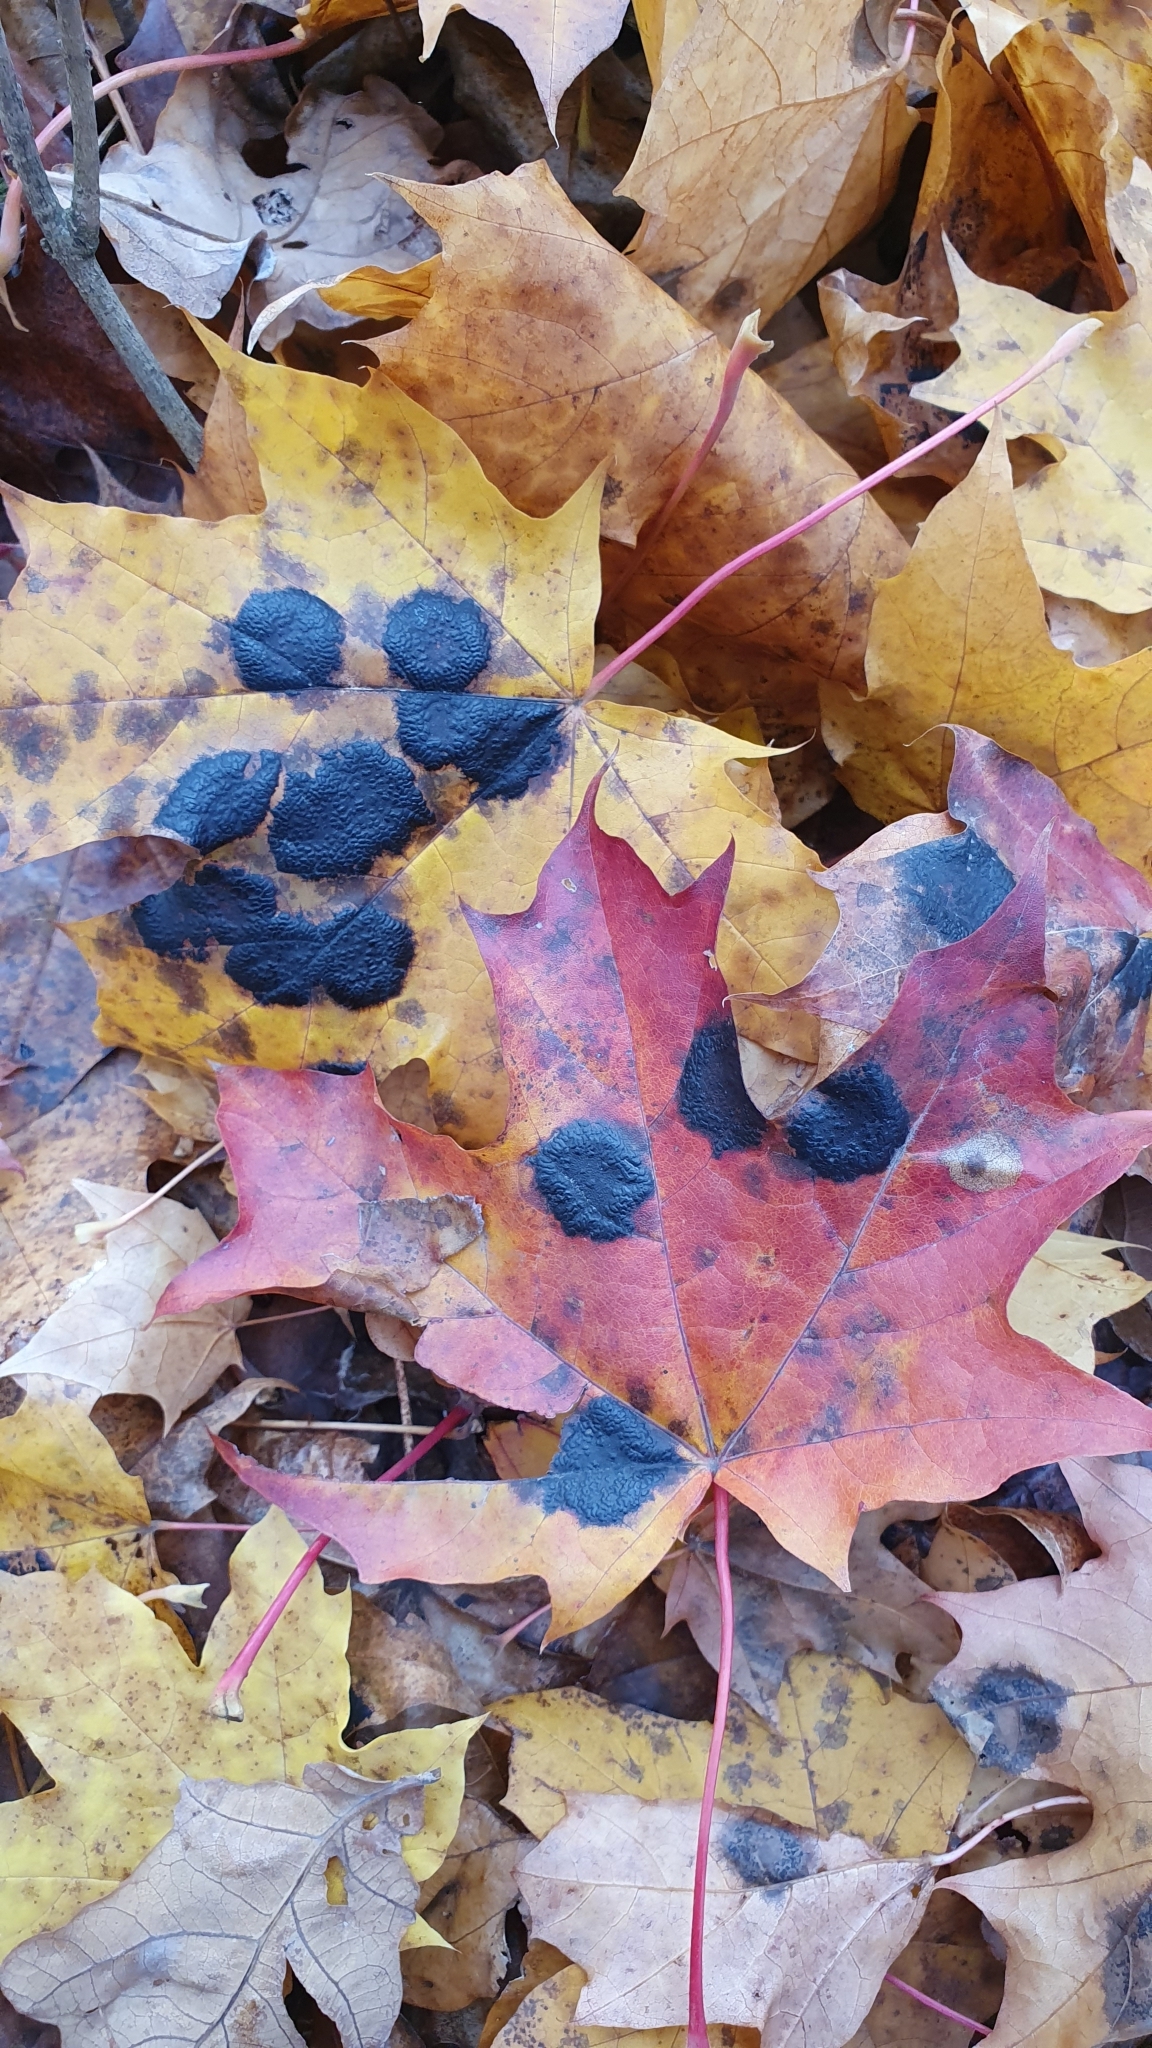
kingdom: Fungi
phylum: Ascomycota
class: Leotiomycetes
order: Rhytismatales
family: Rhytismataceae
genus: Rhytisma
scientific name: Rhytisma acerinum
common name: European tar spot
